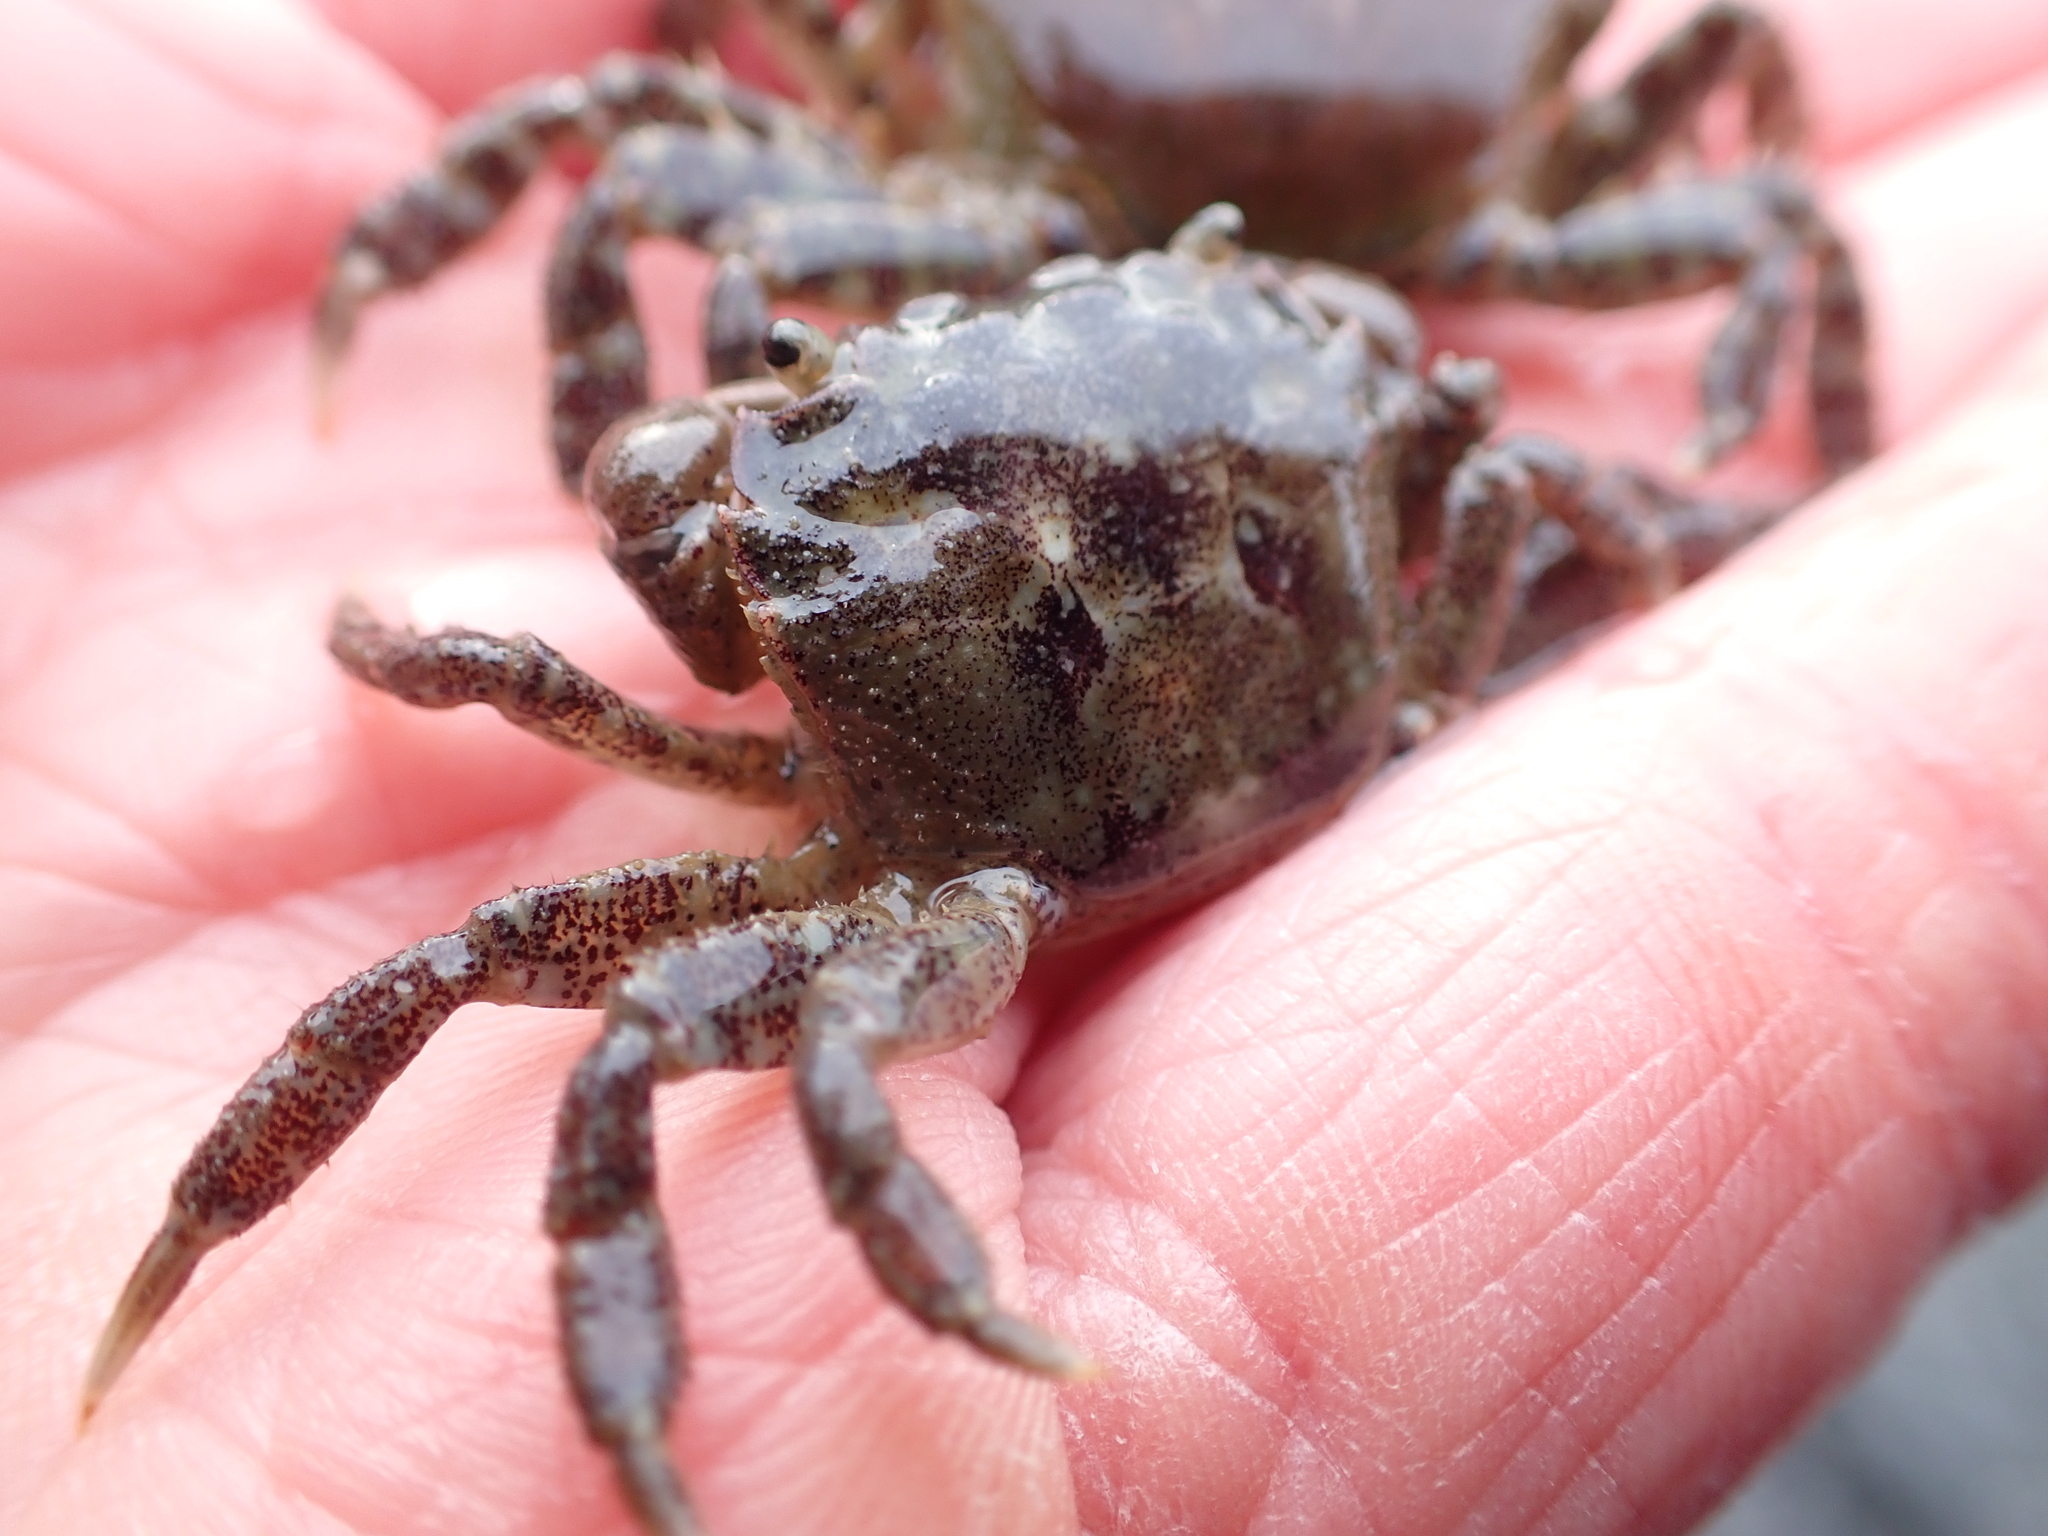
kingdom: Animalia
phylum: Arthropoda
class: Malacostraca
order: Decapoda
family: Varunidae
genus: Hemigrapsus
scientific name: Hemigrapsus oregonensis
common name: Yellow shore crab
